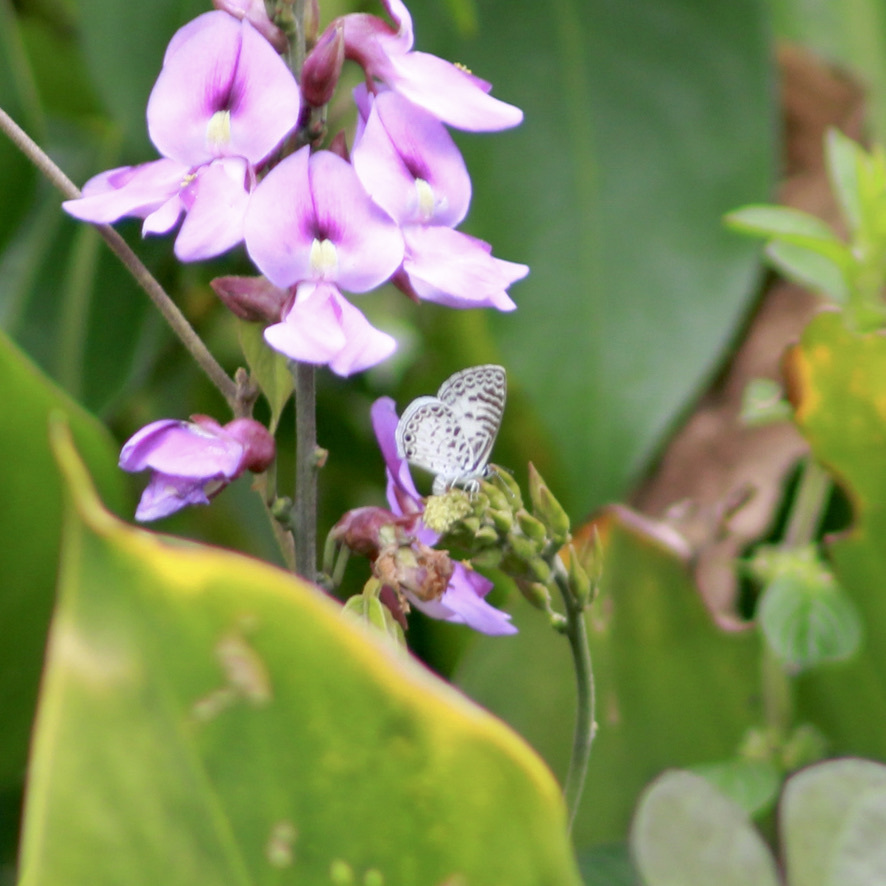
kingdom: Animalia
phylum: Arthropoda
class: Insecta
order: Lepidoptera
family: Lycaenidae
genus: Leptotes
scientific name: Leptotes cassius
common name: Cassius blue
